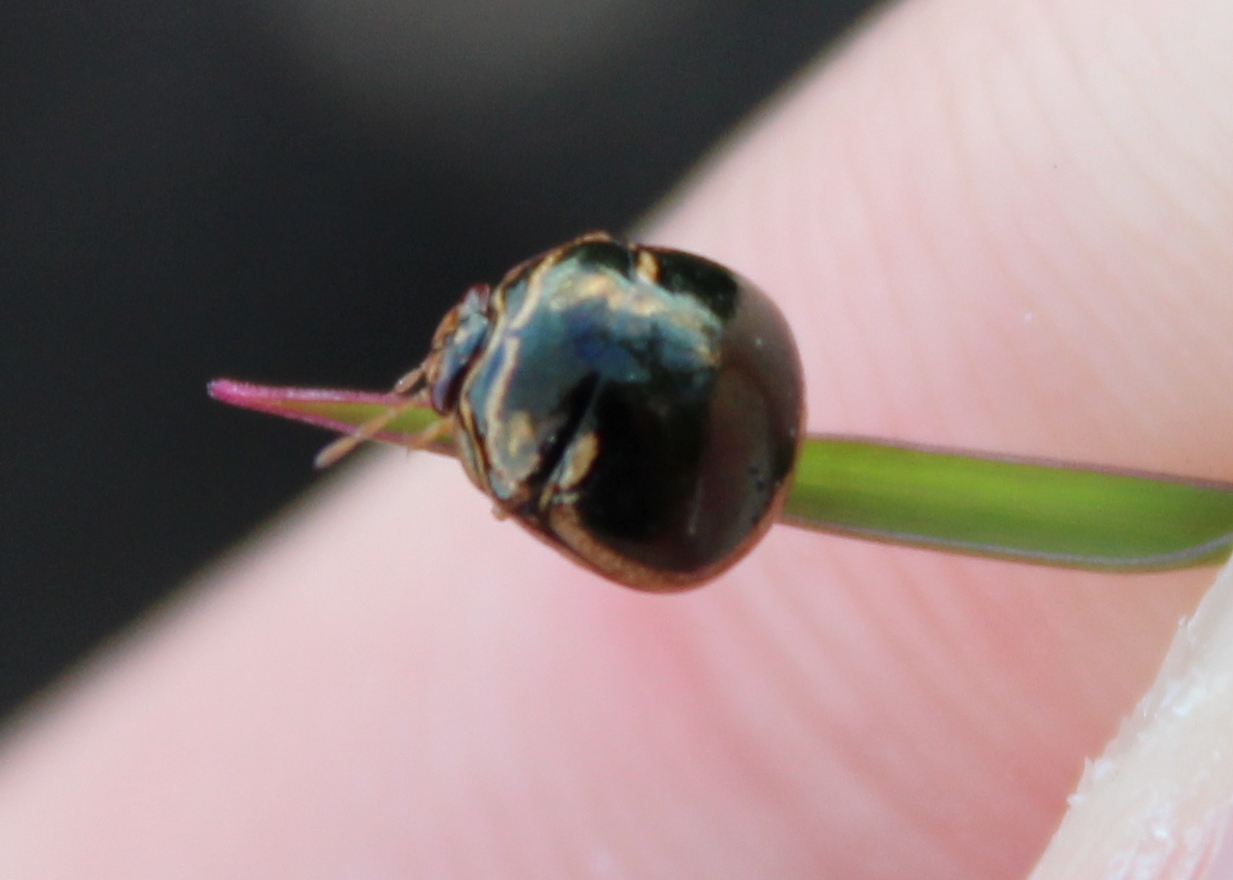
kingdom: Animalia
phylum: Arthropoda
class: Insecta
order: Hemiptera
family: Plataspidae
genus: Coptosoma
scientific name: Coptosoma
